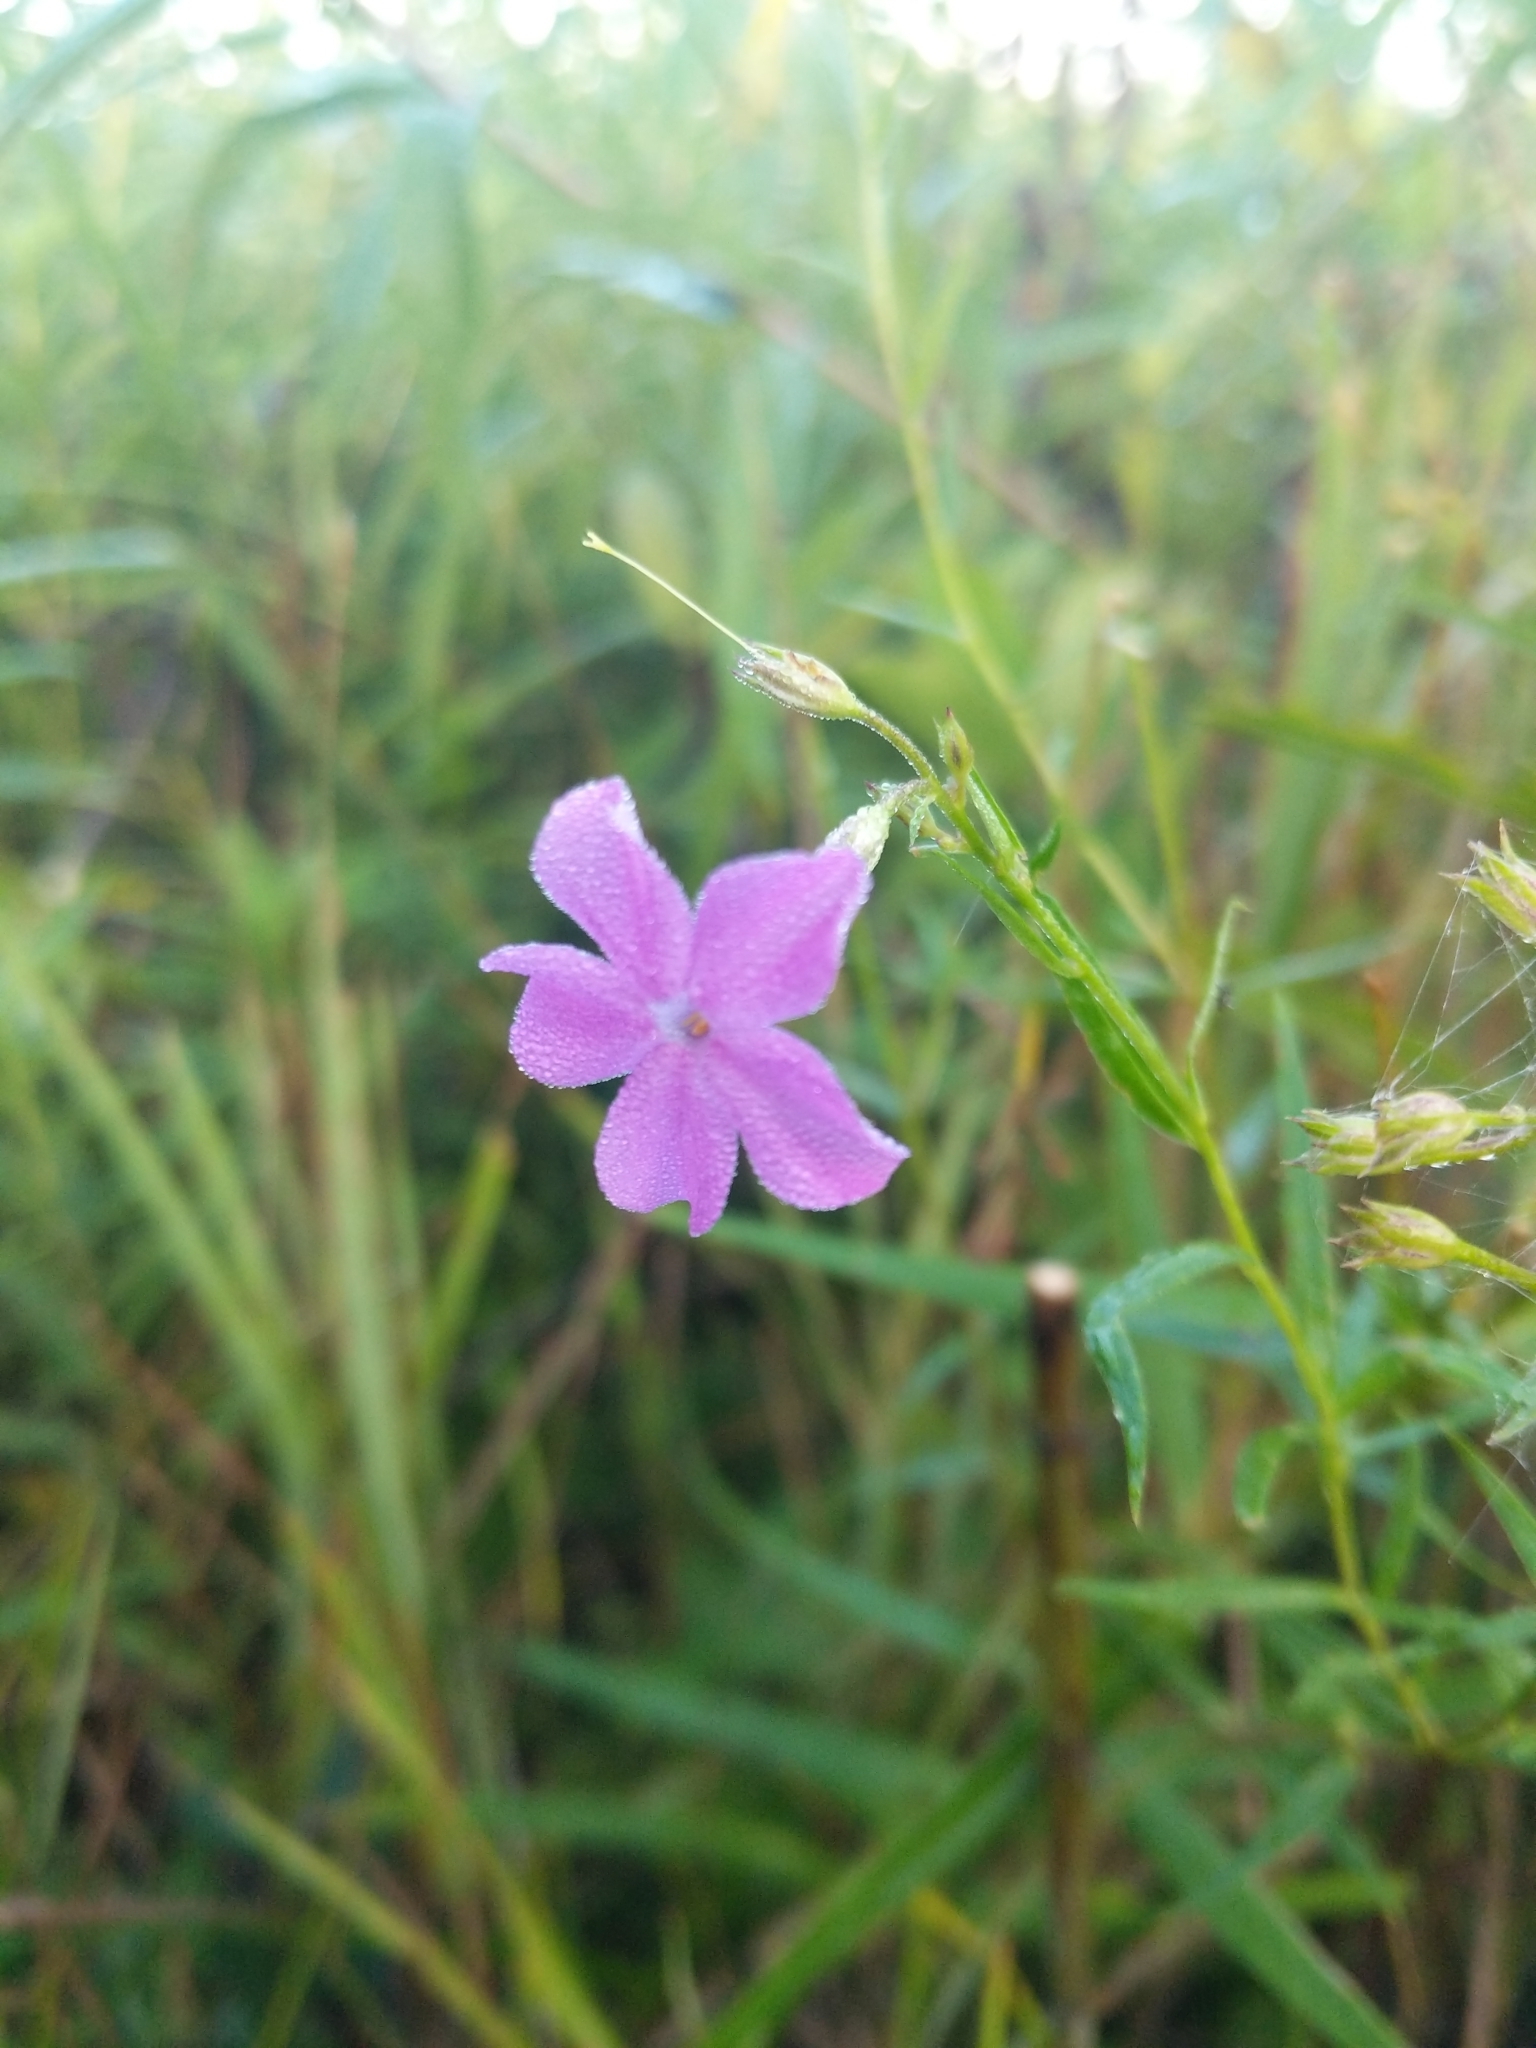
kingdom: Plantae
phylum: Tracheophyta
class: Magnoliopsida
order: Ericales
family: Polemoniaceae
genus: Phlox
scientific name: Phlox glaberrima
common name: Smooth phlox
